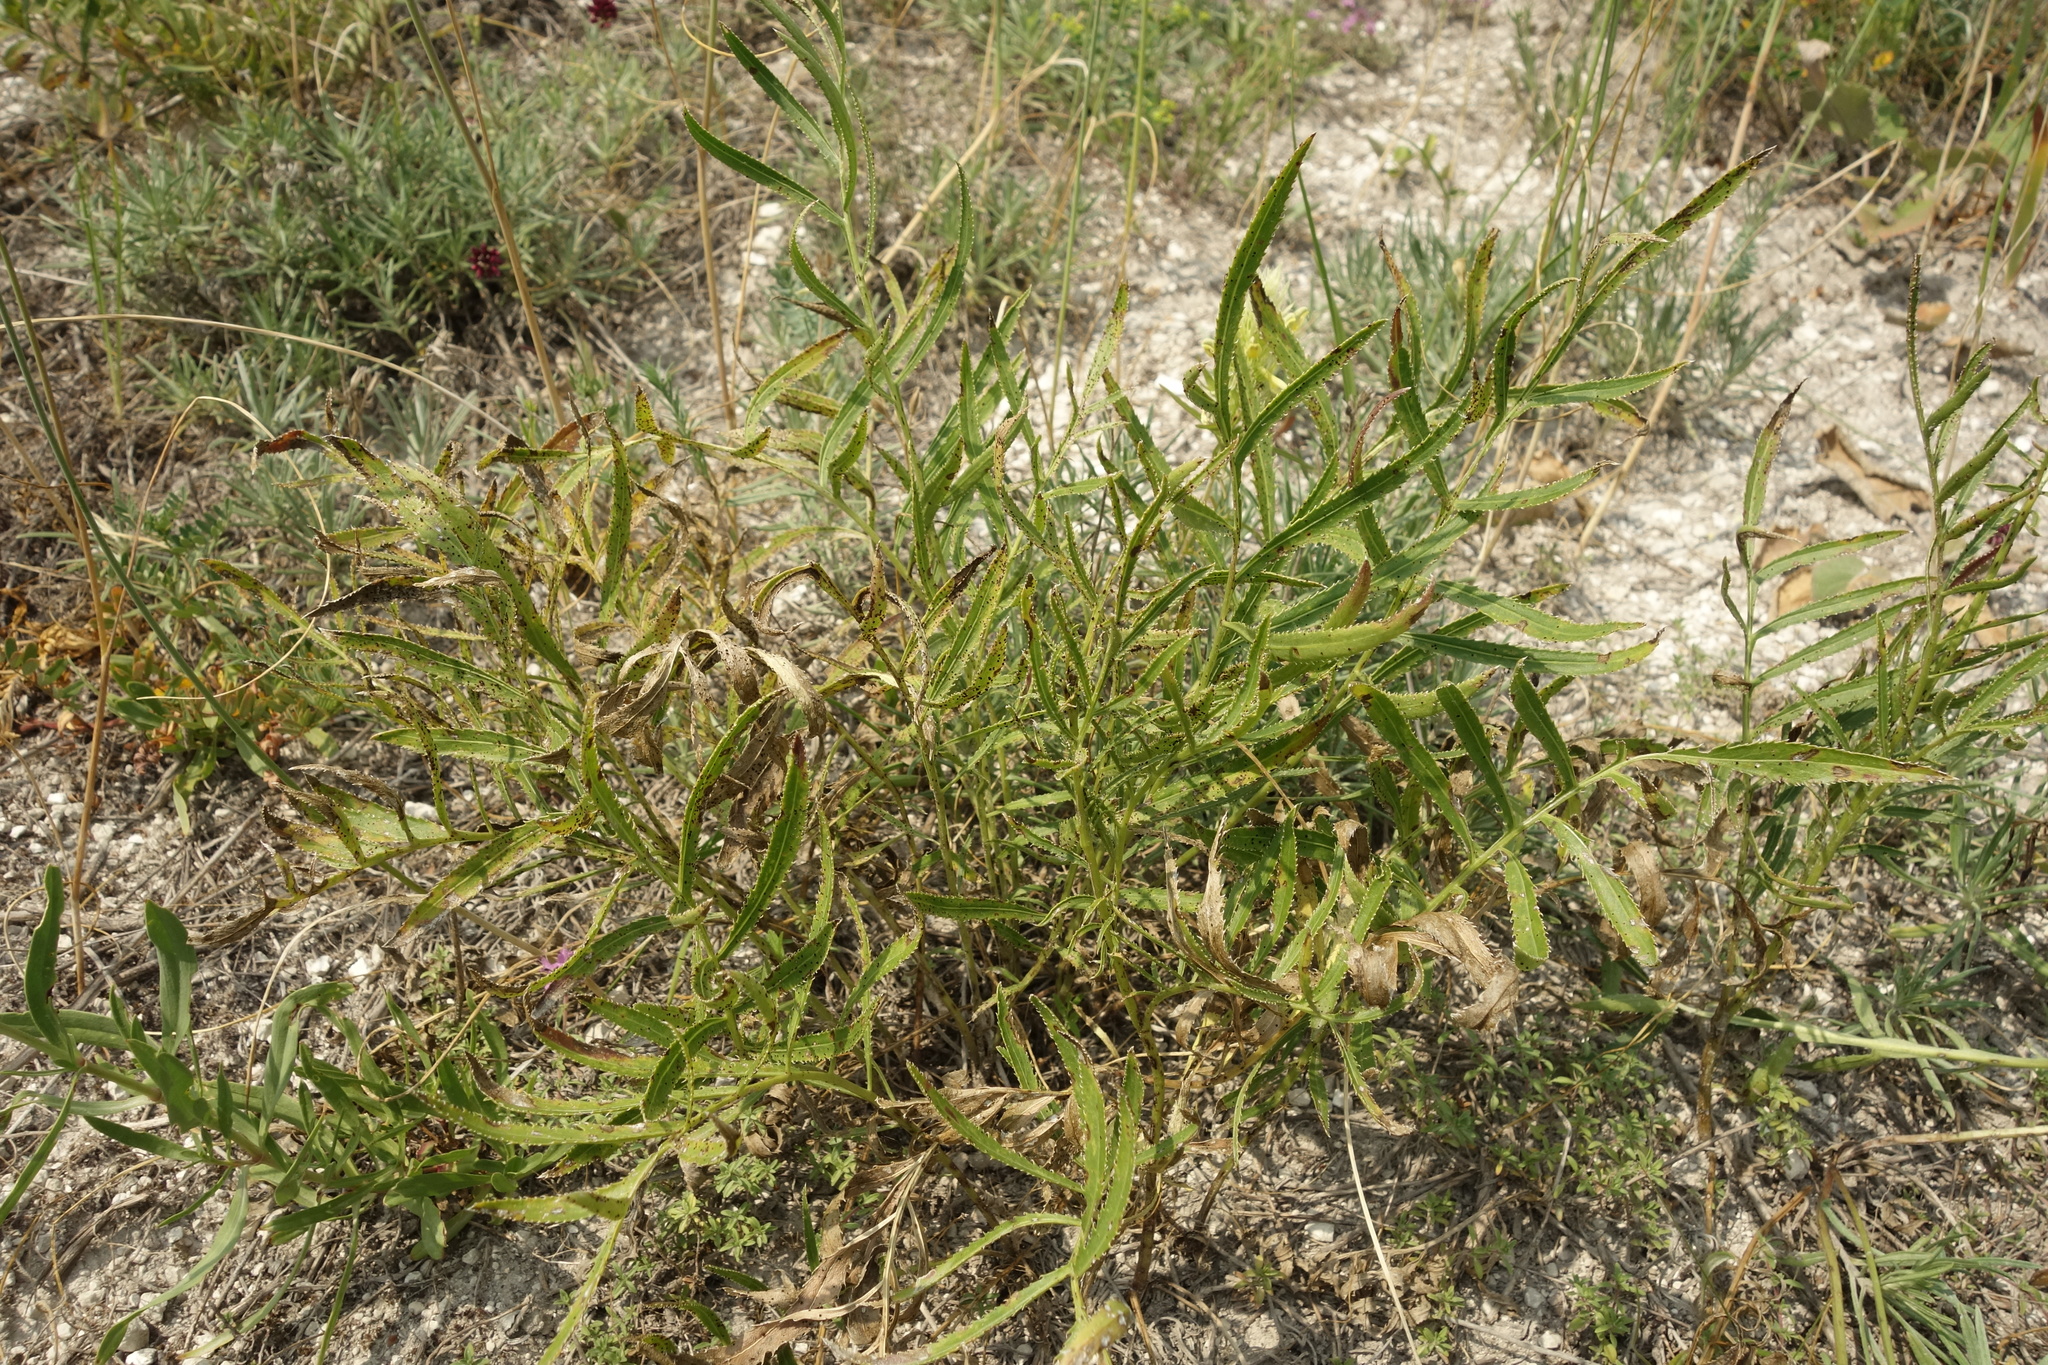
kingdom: Plantae
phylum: Tracheophyta
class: Magnoliopsida
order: Asterales
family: Asteraceae
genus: Rhaponticoides
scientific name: Rhaponticoides ruthenica
